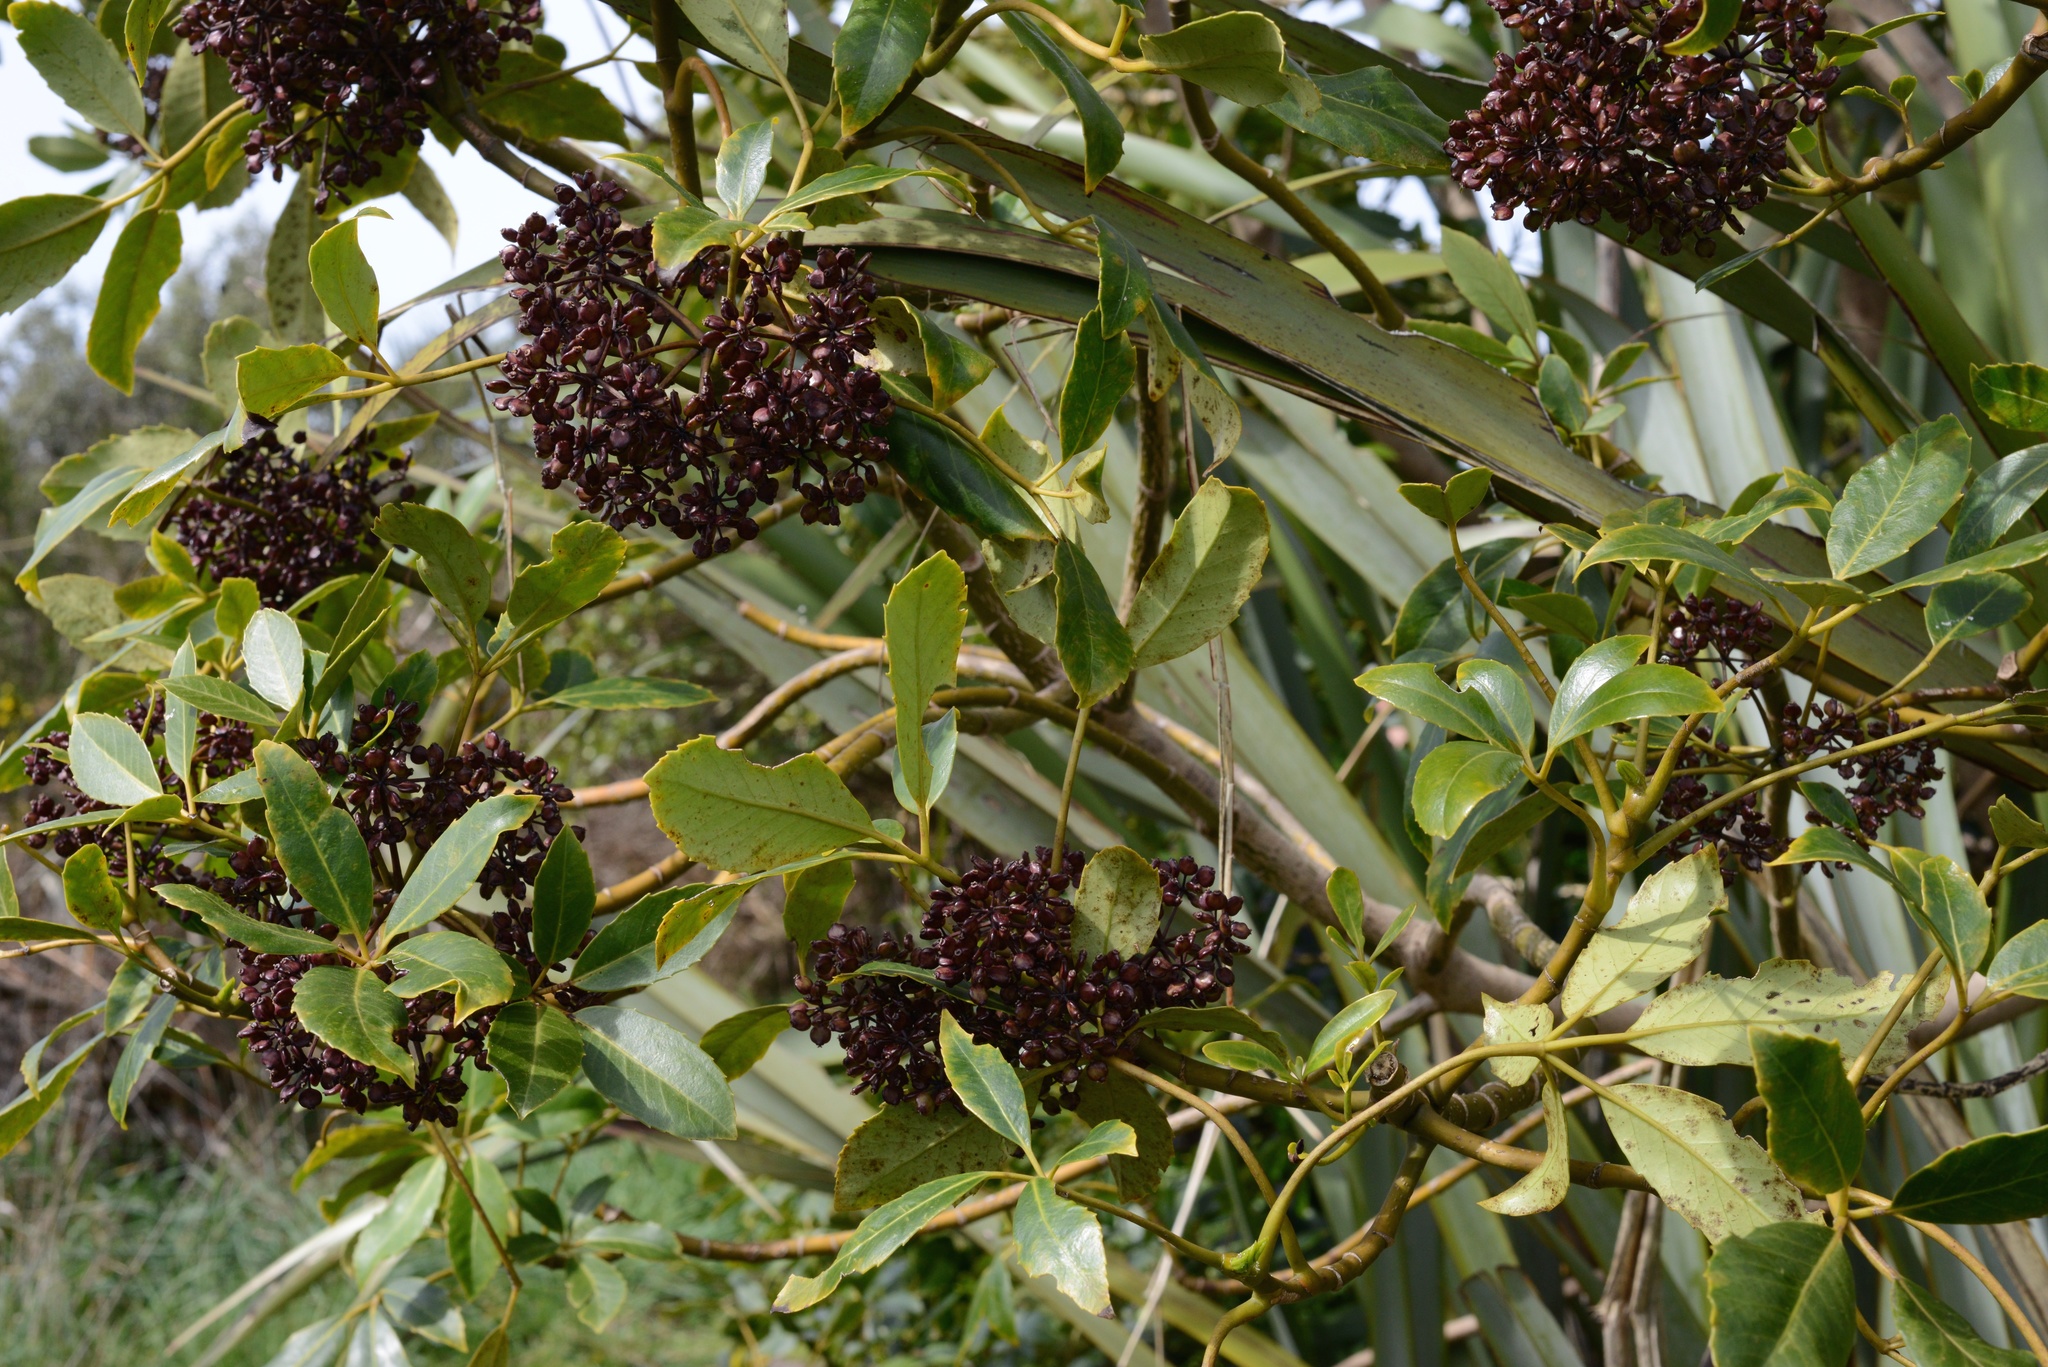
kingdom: Plantae
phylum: Tracheophyta
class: Magnoliopsida
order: Apiales
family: Araliaceae
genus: Neopanax
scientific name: Neopanax arboreus
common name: Five-fingers
